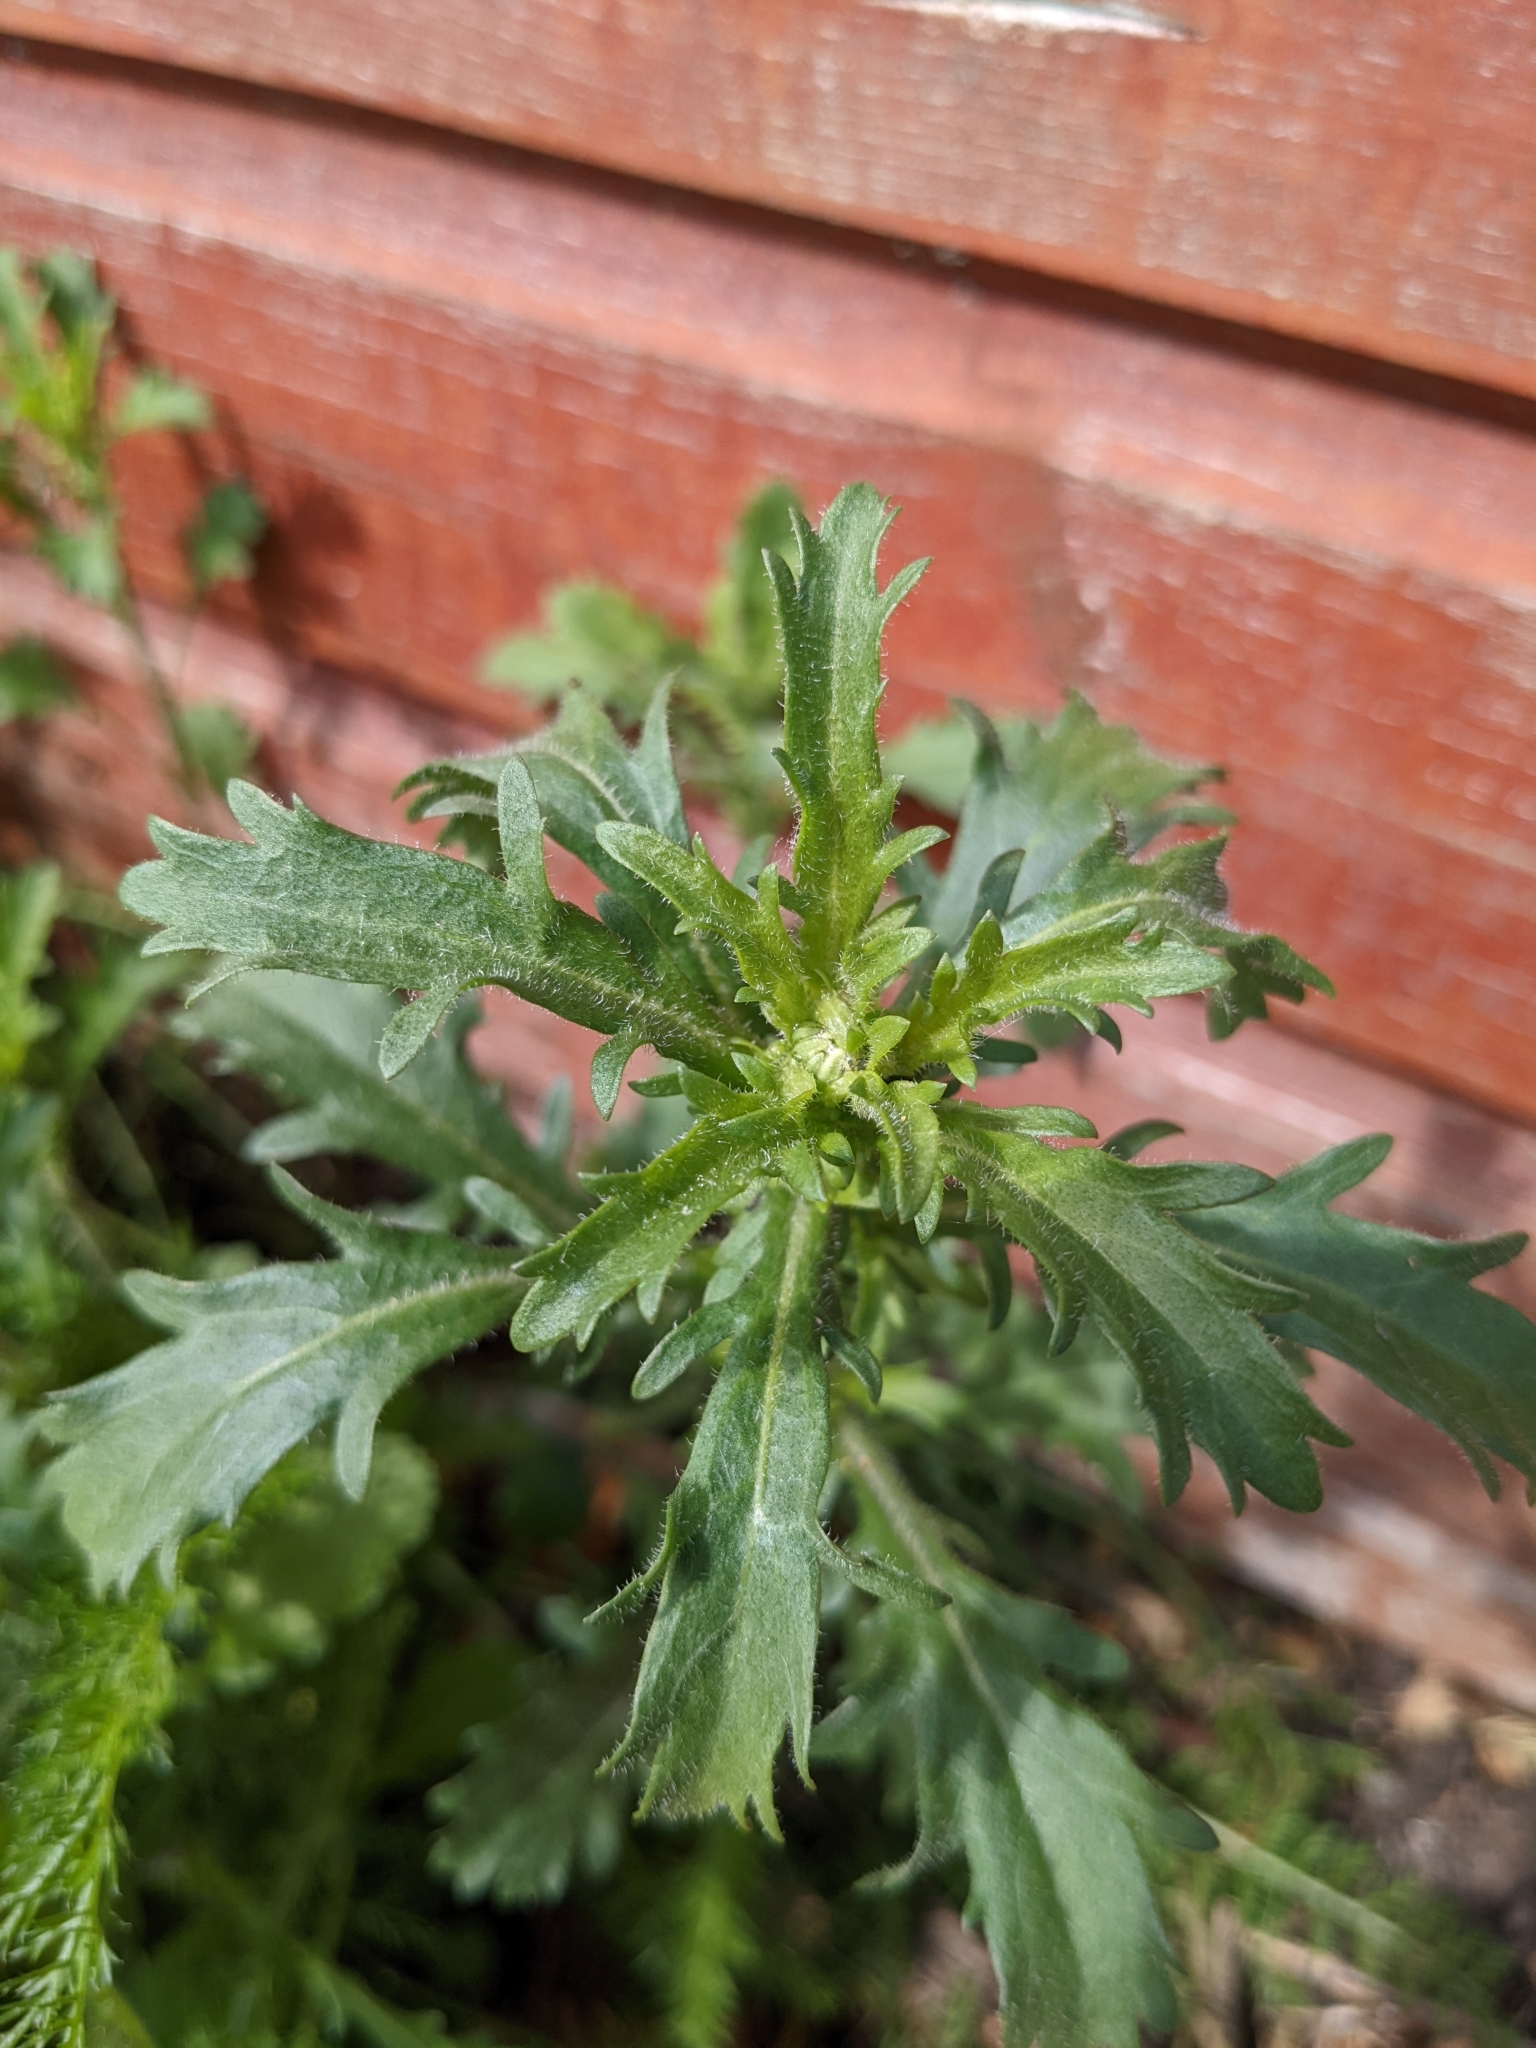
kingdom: Plantae
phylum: Tracheophyta
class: Magnoliopsida
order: Asterales
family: Asteraceae
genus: Leucanthemum
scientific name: Leucanthemum vulgare
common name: Oxeye daisy
